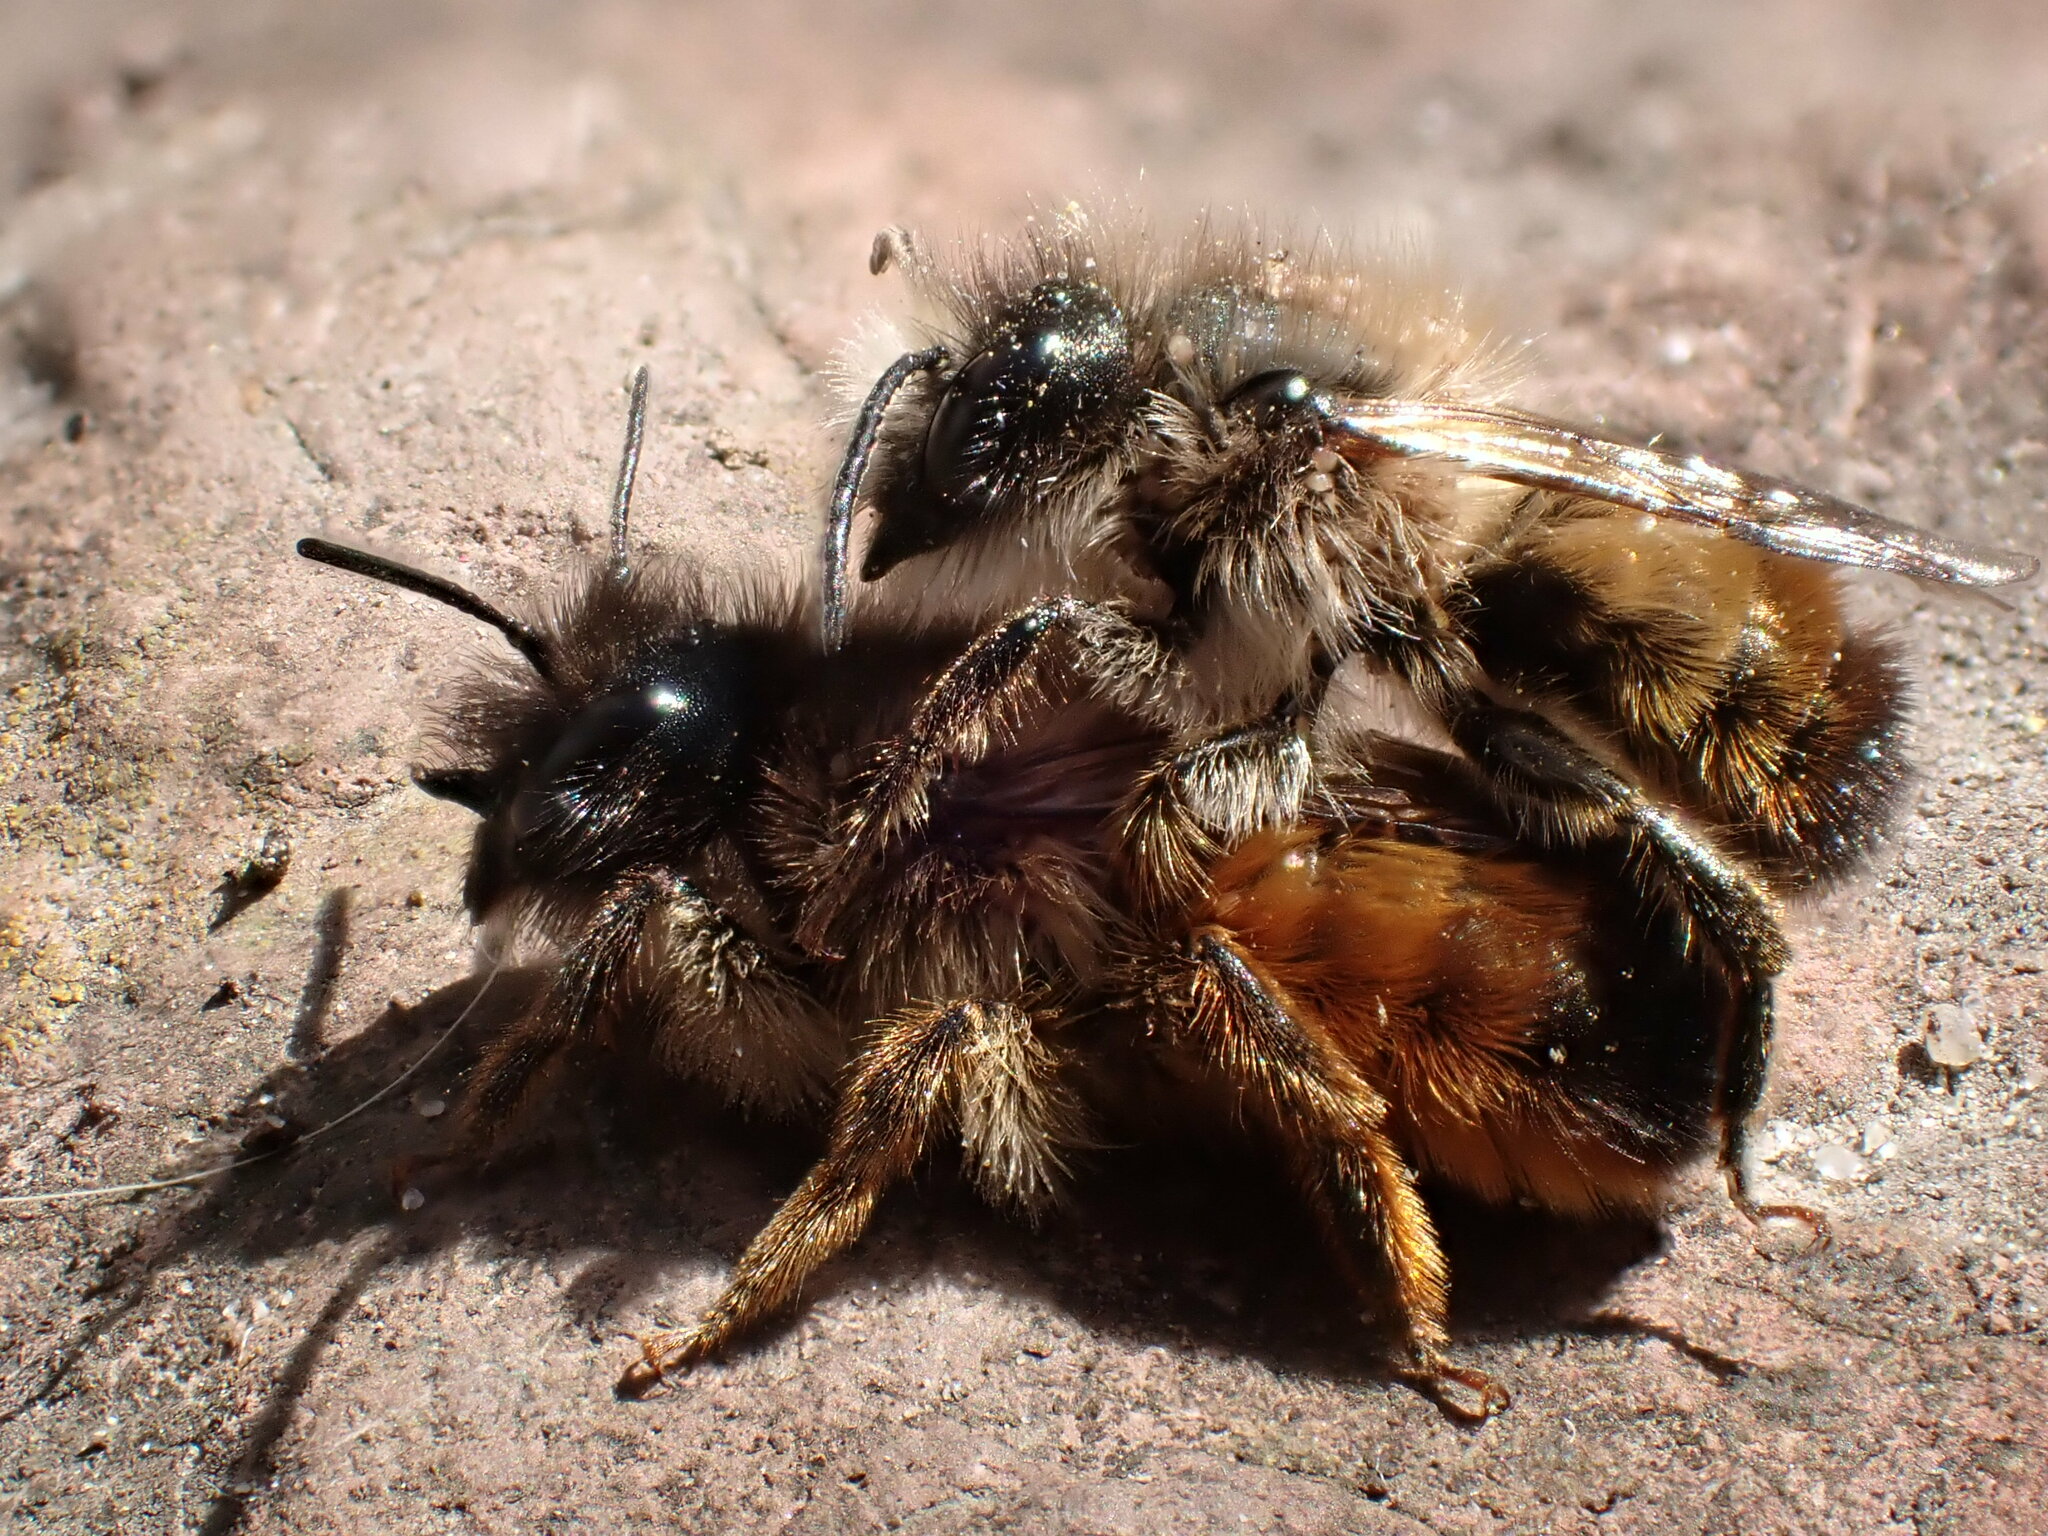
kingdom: Animalia
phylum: Arthropoda
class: Insecta
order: Hymenoptera
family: Megachilidae
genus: Osmia
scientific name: Osmia bicornis
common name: Red mason bee
